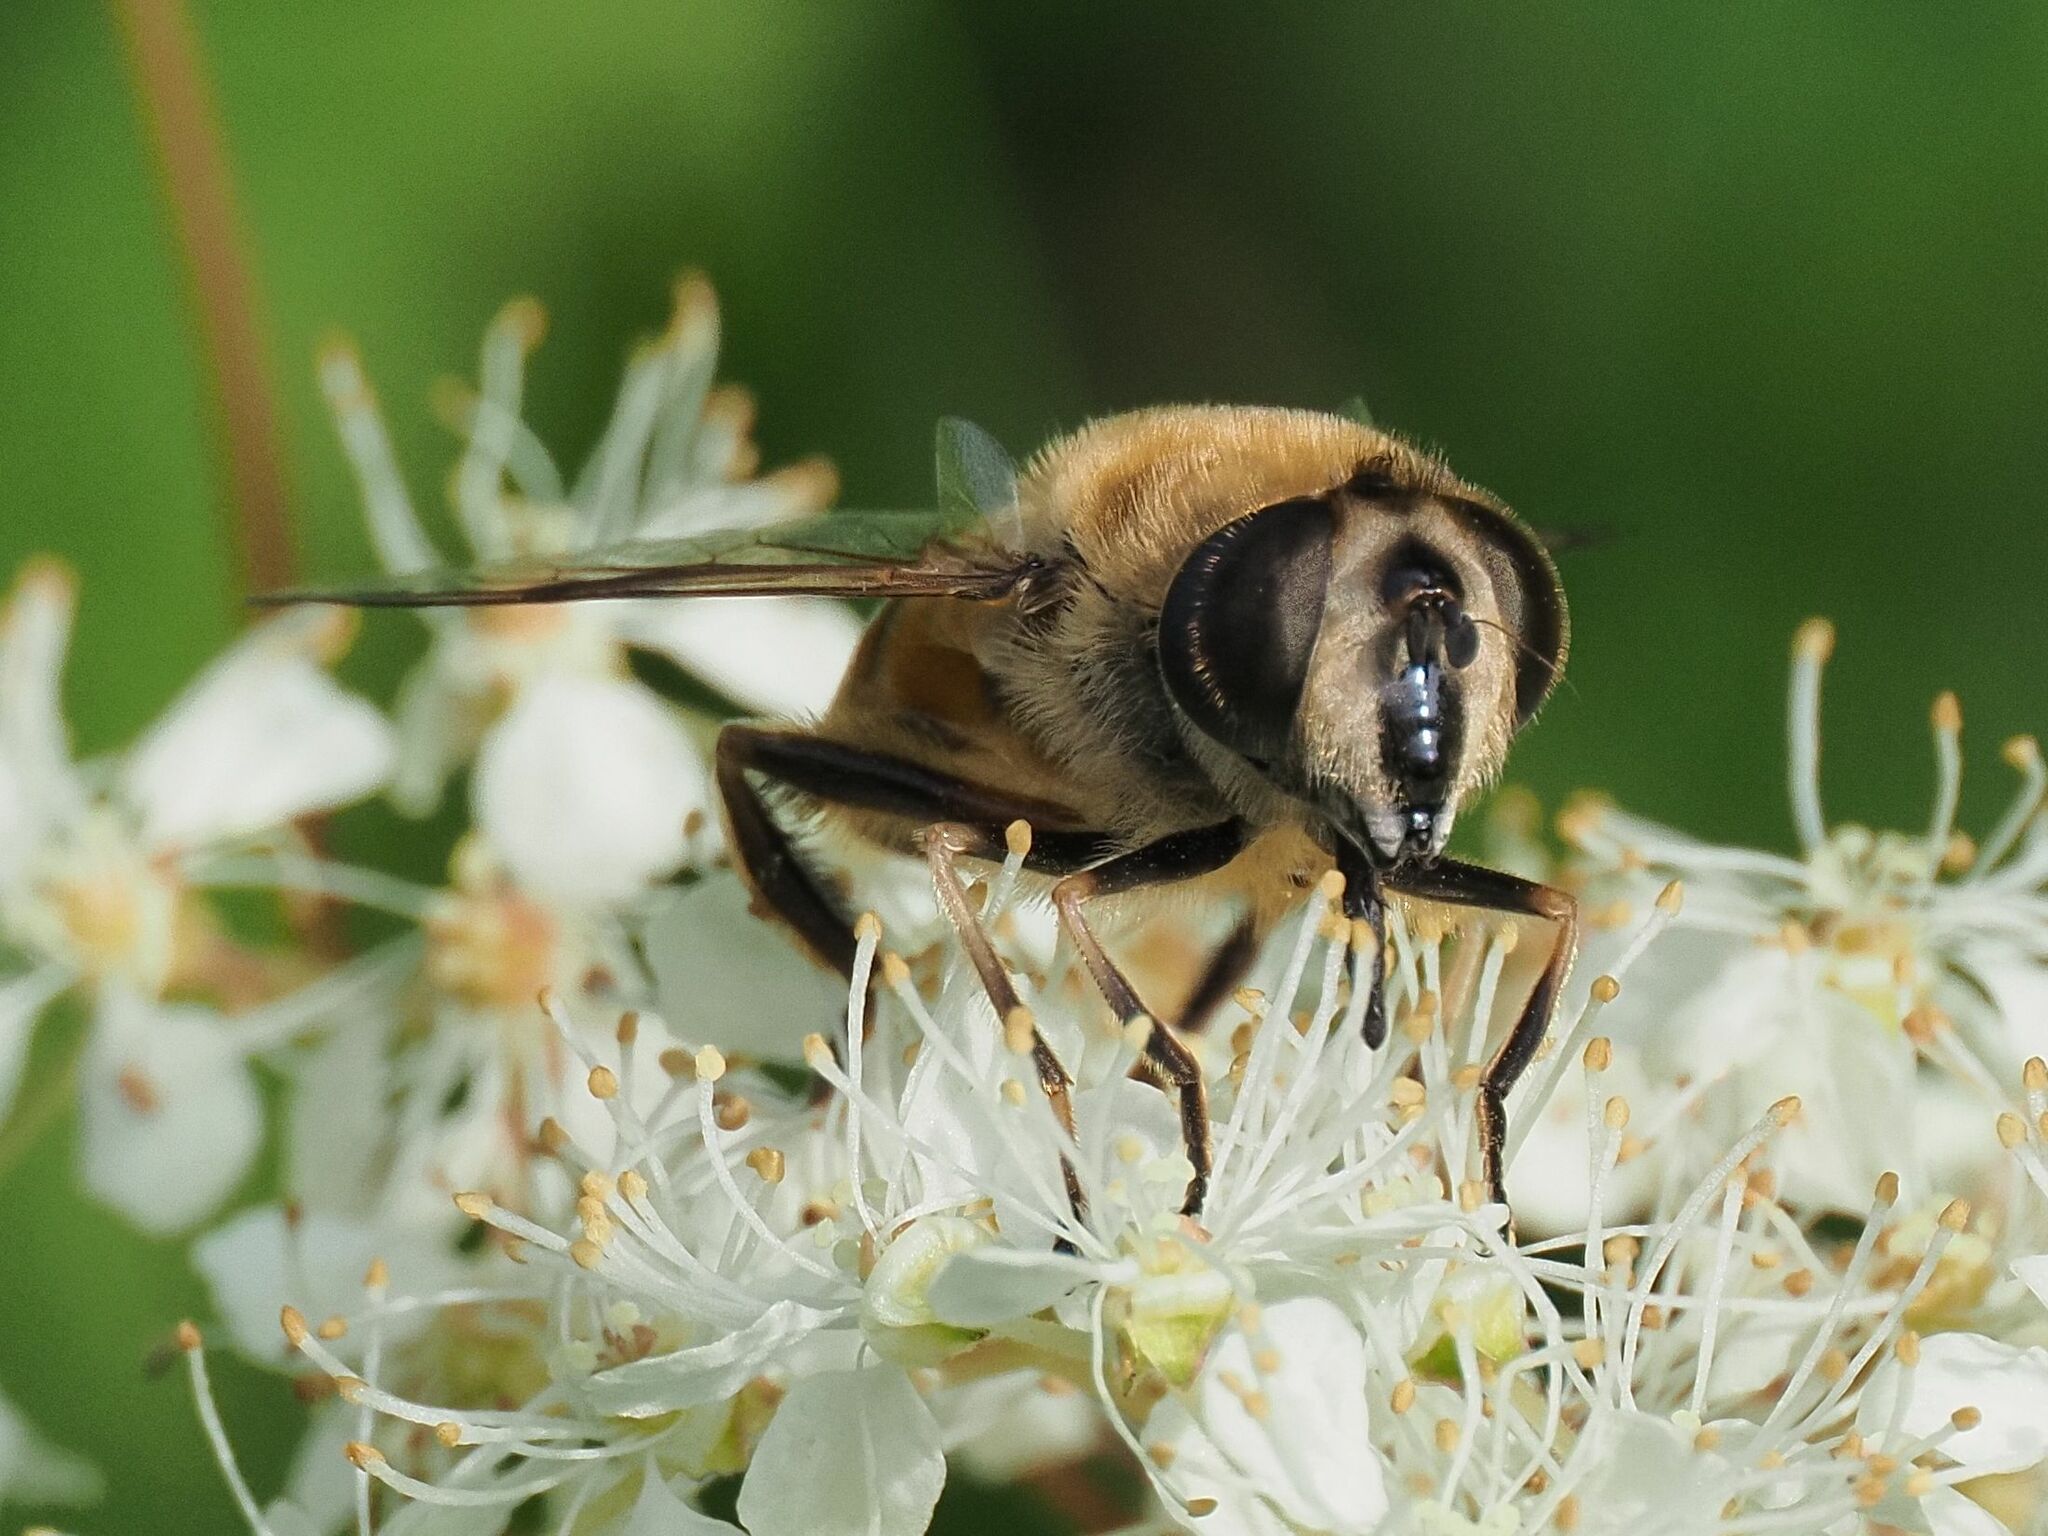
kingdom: Animalia
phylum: Arthropoda
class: Insecta
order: Diptera
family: Syrphidae
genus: Eristalis
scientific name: Eristalis tenax
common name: Drone fly
